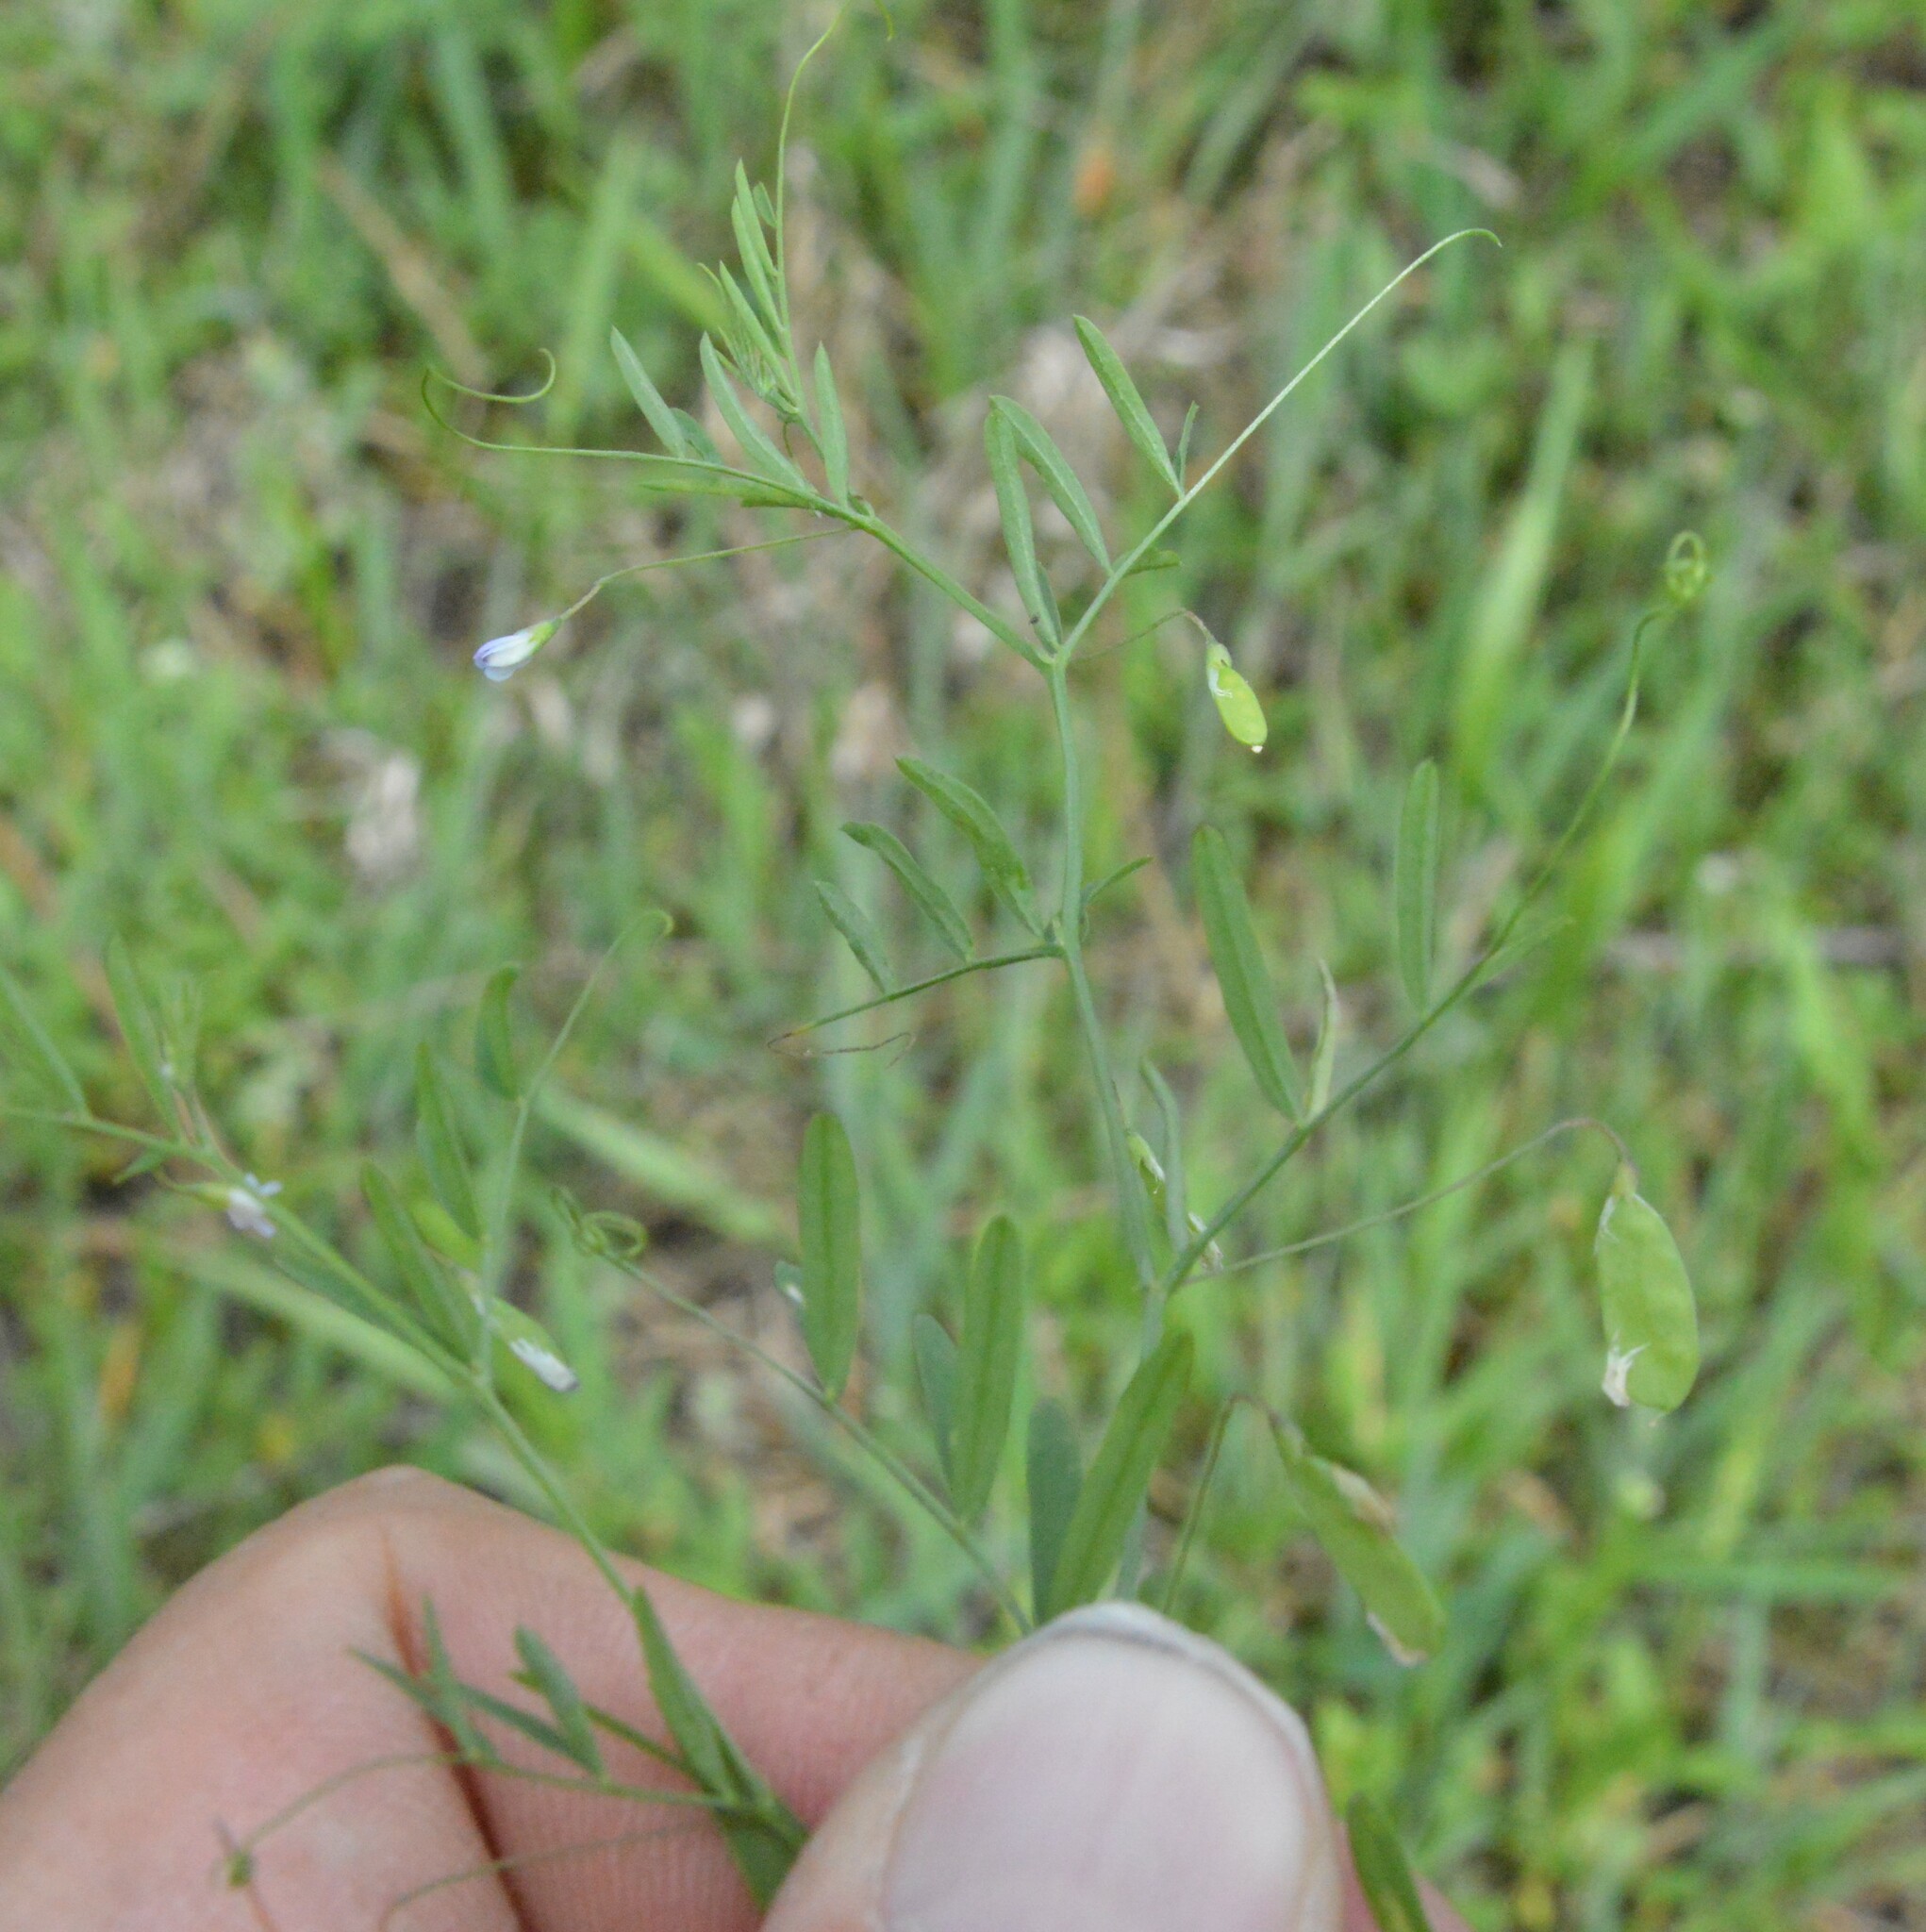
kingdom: Plantae
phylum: Tracheophyta
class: Magnoliopsida
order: Fabales
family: Fabaceae
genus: Vicia
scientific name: Vicia tetrasperma
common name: Smooth tare
